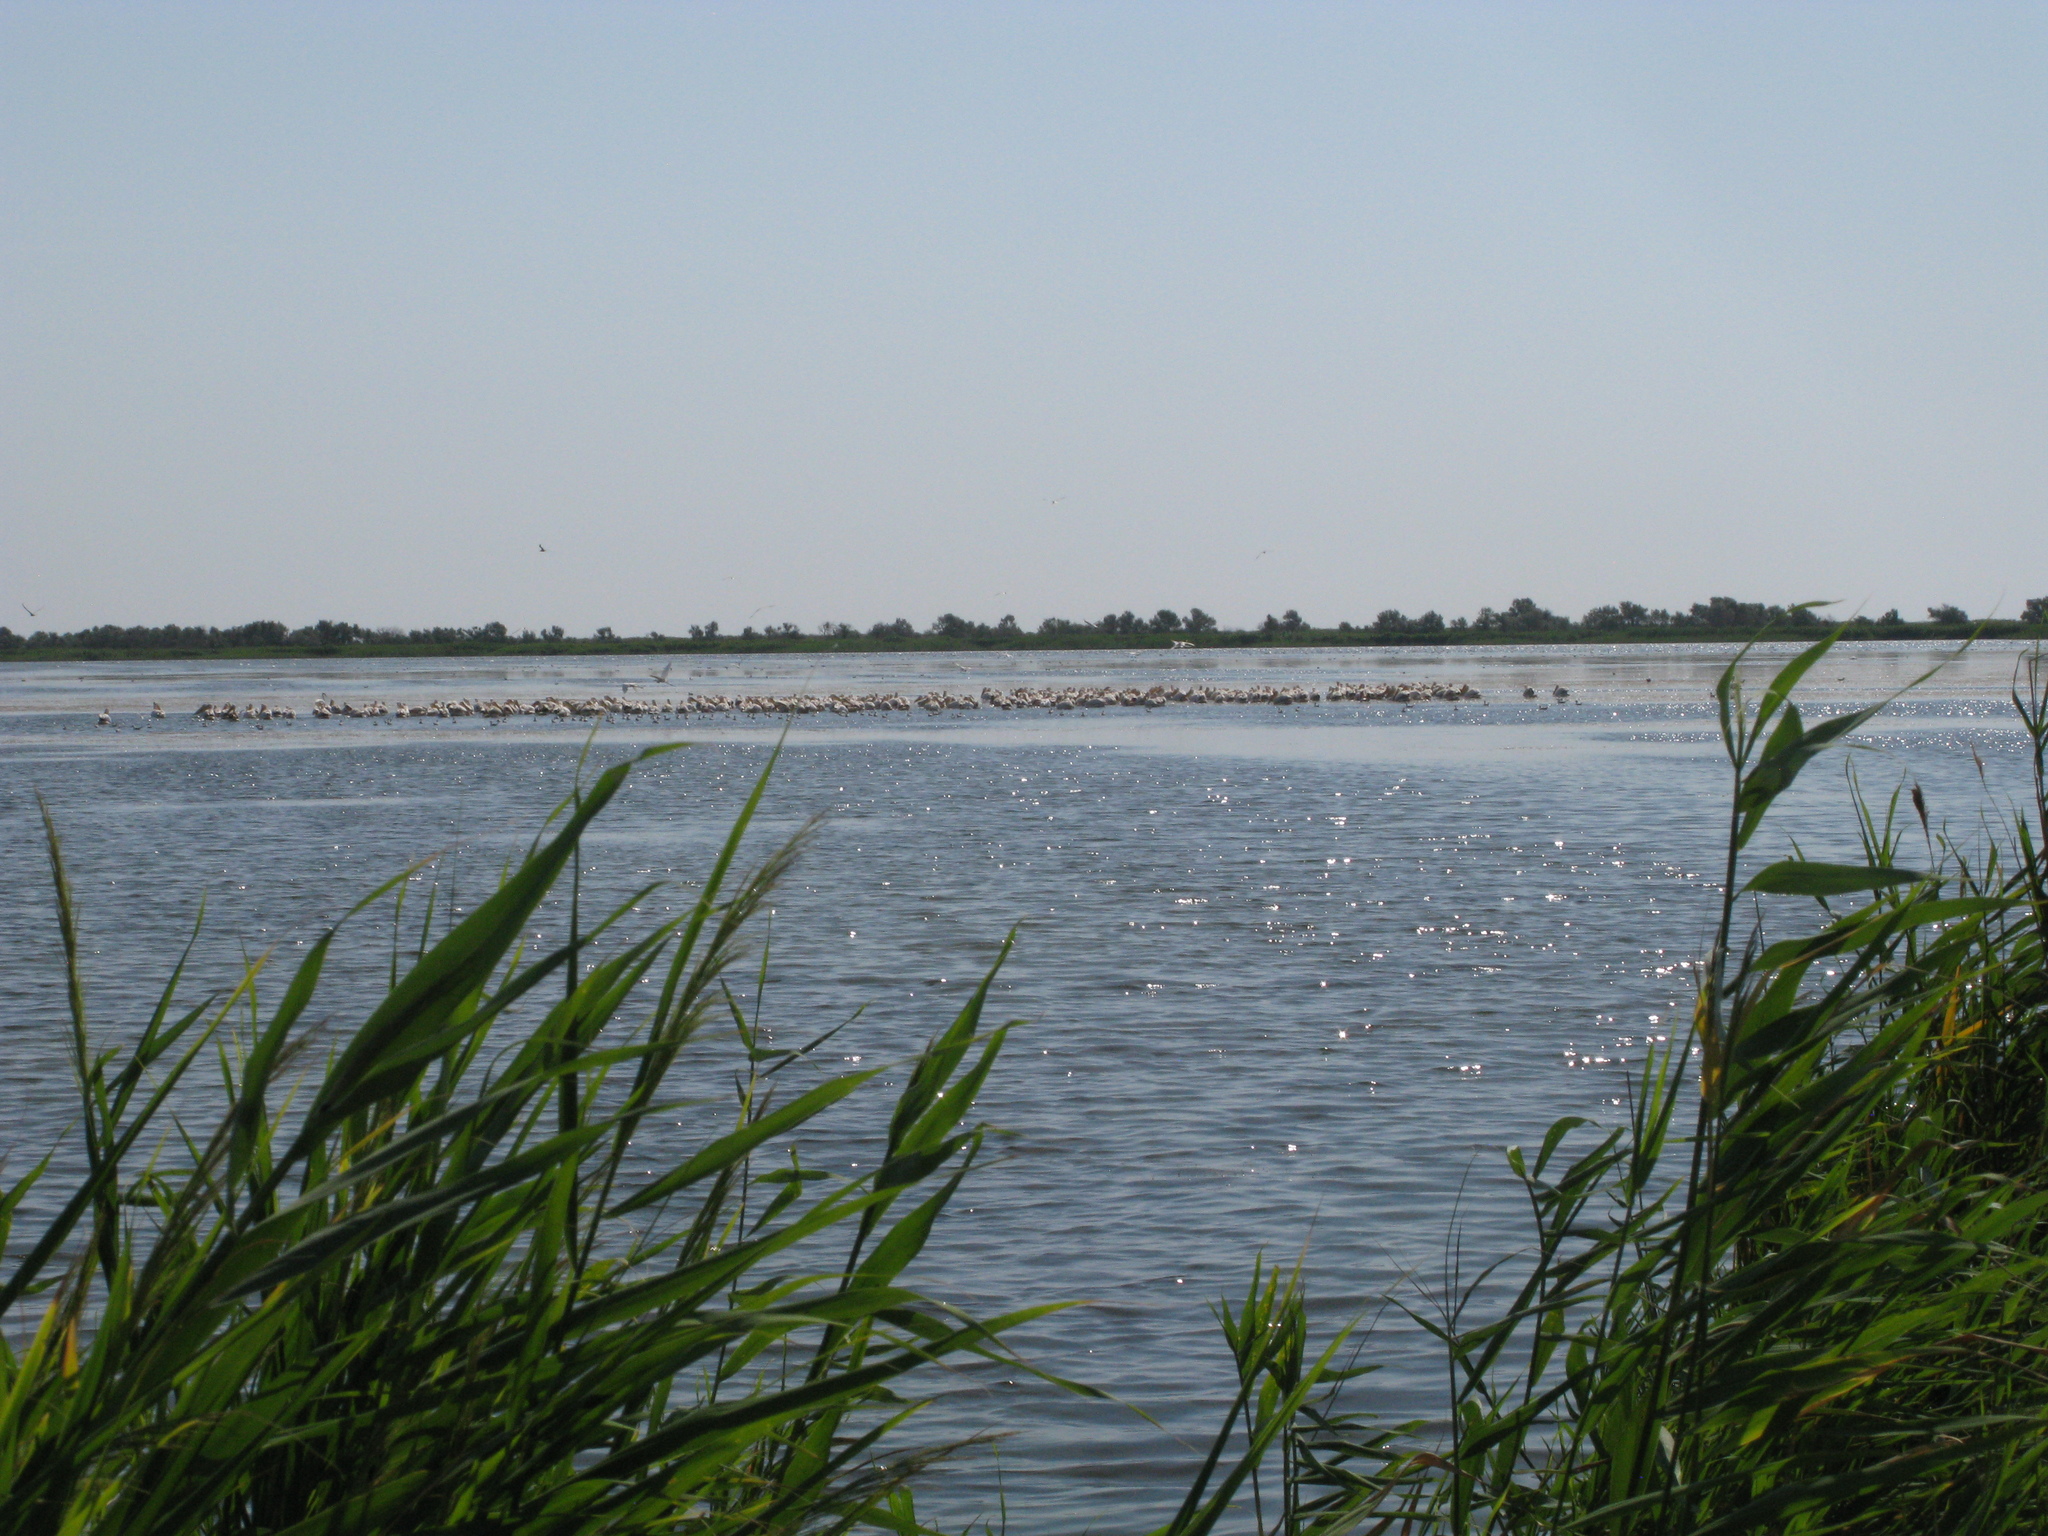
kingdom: Animalia
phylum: Chordata
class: Aves
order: Pelecaniformes
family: Pelecanidae
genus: Pelecanus
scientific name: Pelecanus onocrotalus
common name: Great white pelican
